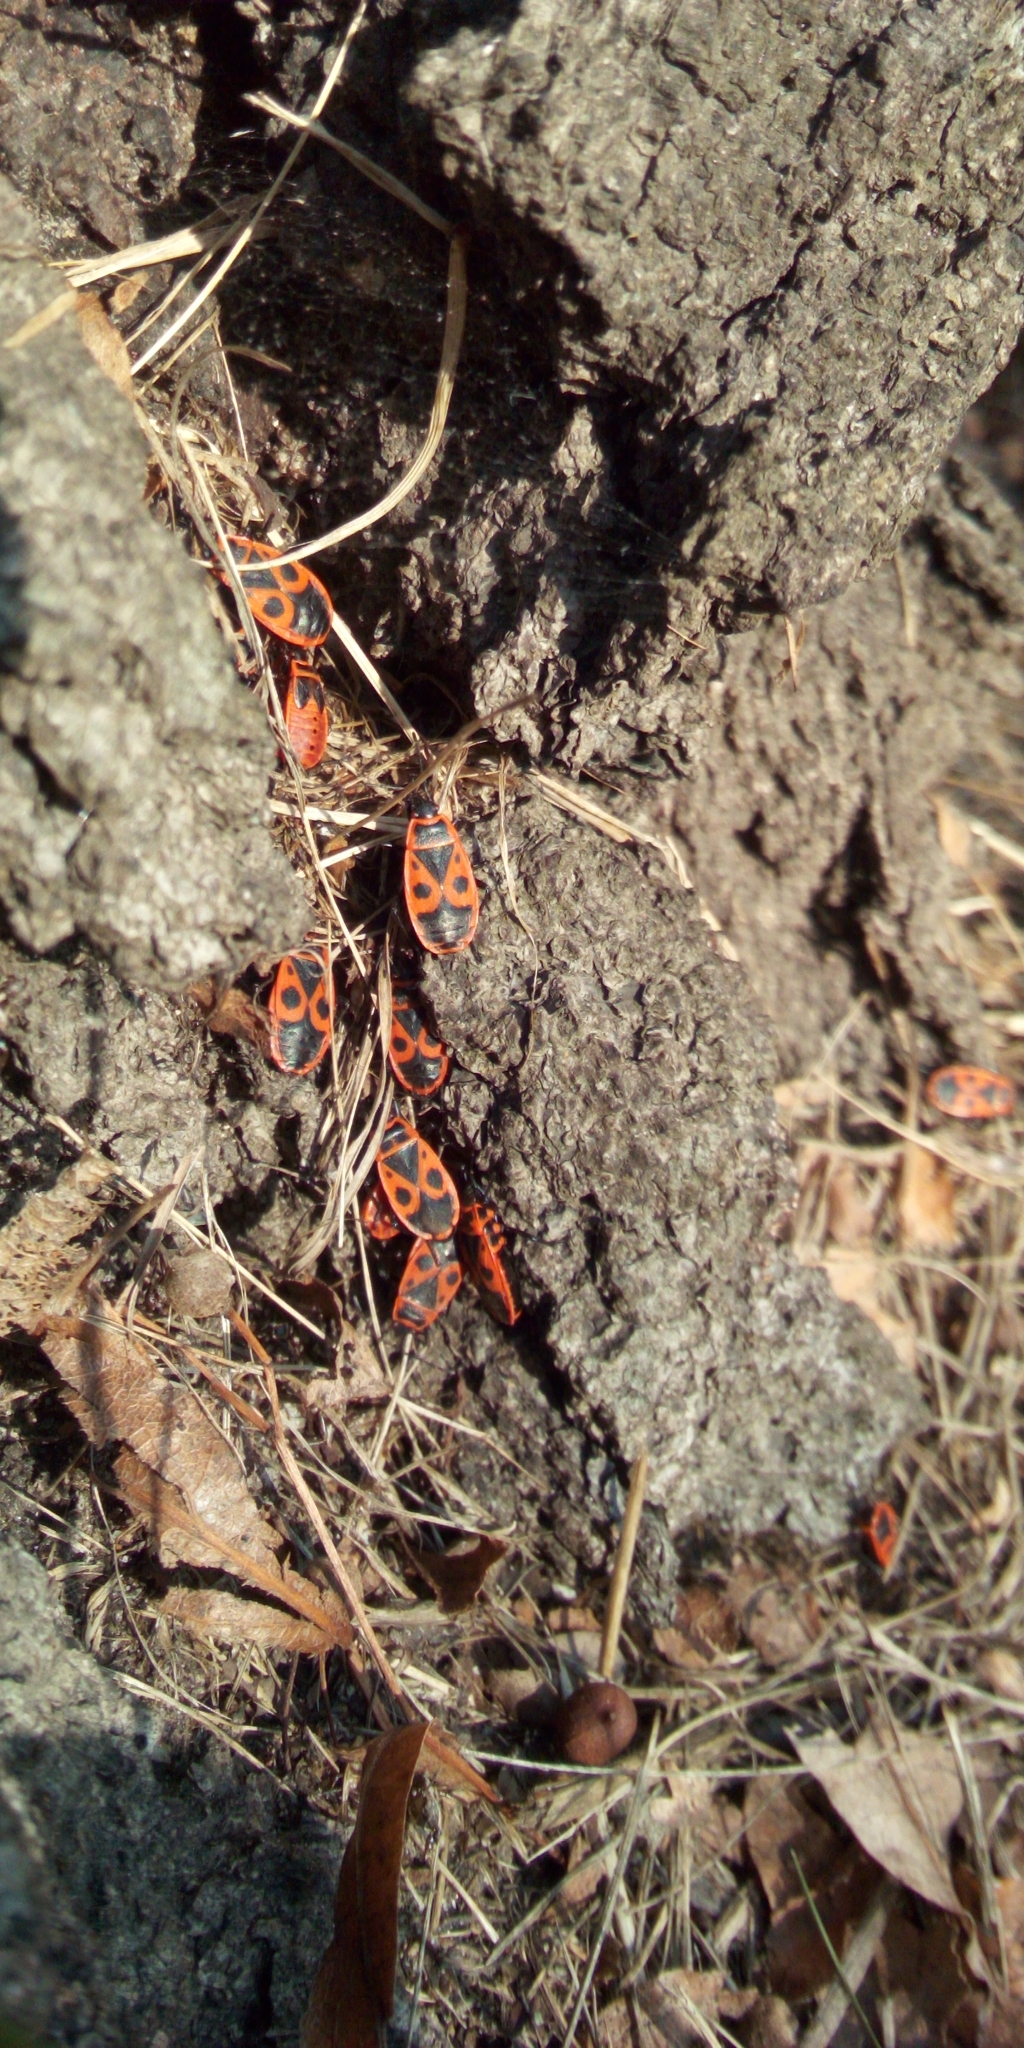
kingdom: Animalia
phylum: Arthropoda
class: Insecta
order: Hemiptera
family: Pyrrhocoridae
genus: Pyrrhocoris
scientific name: Pyrrhocoris apterus
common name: Firebug
